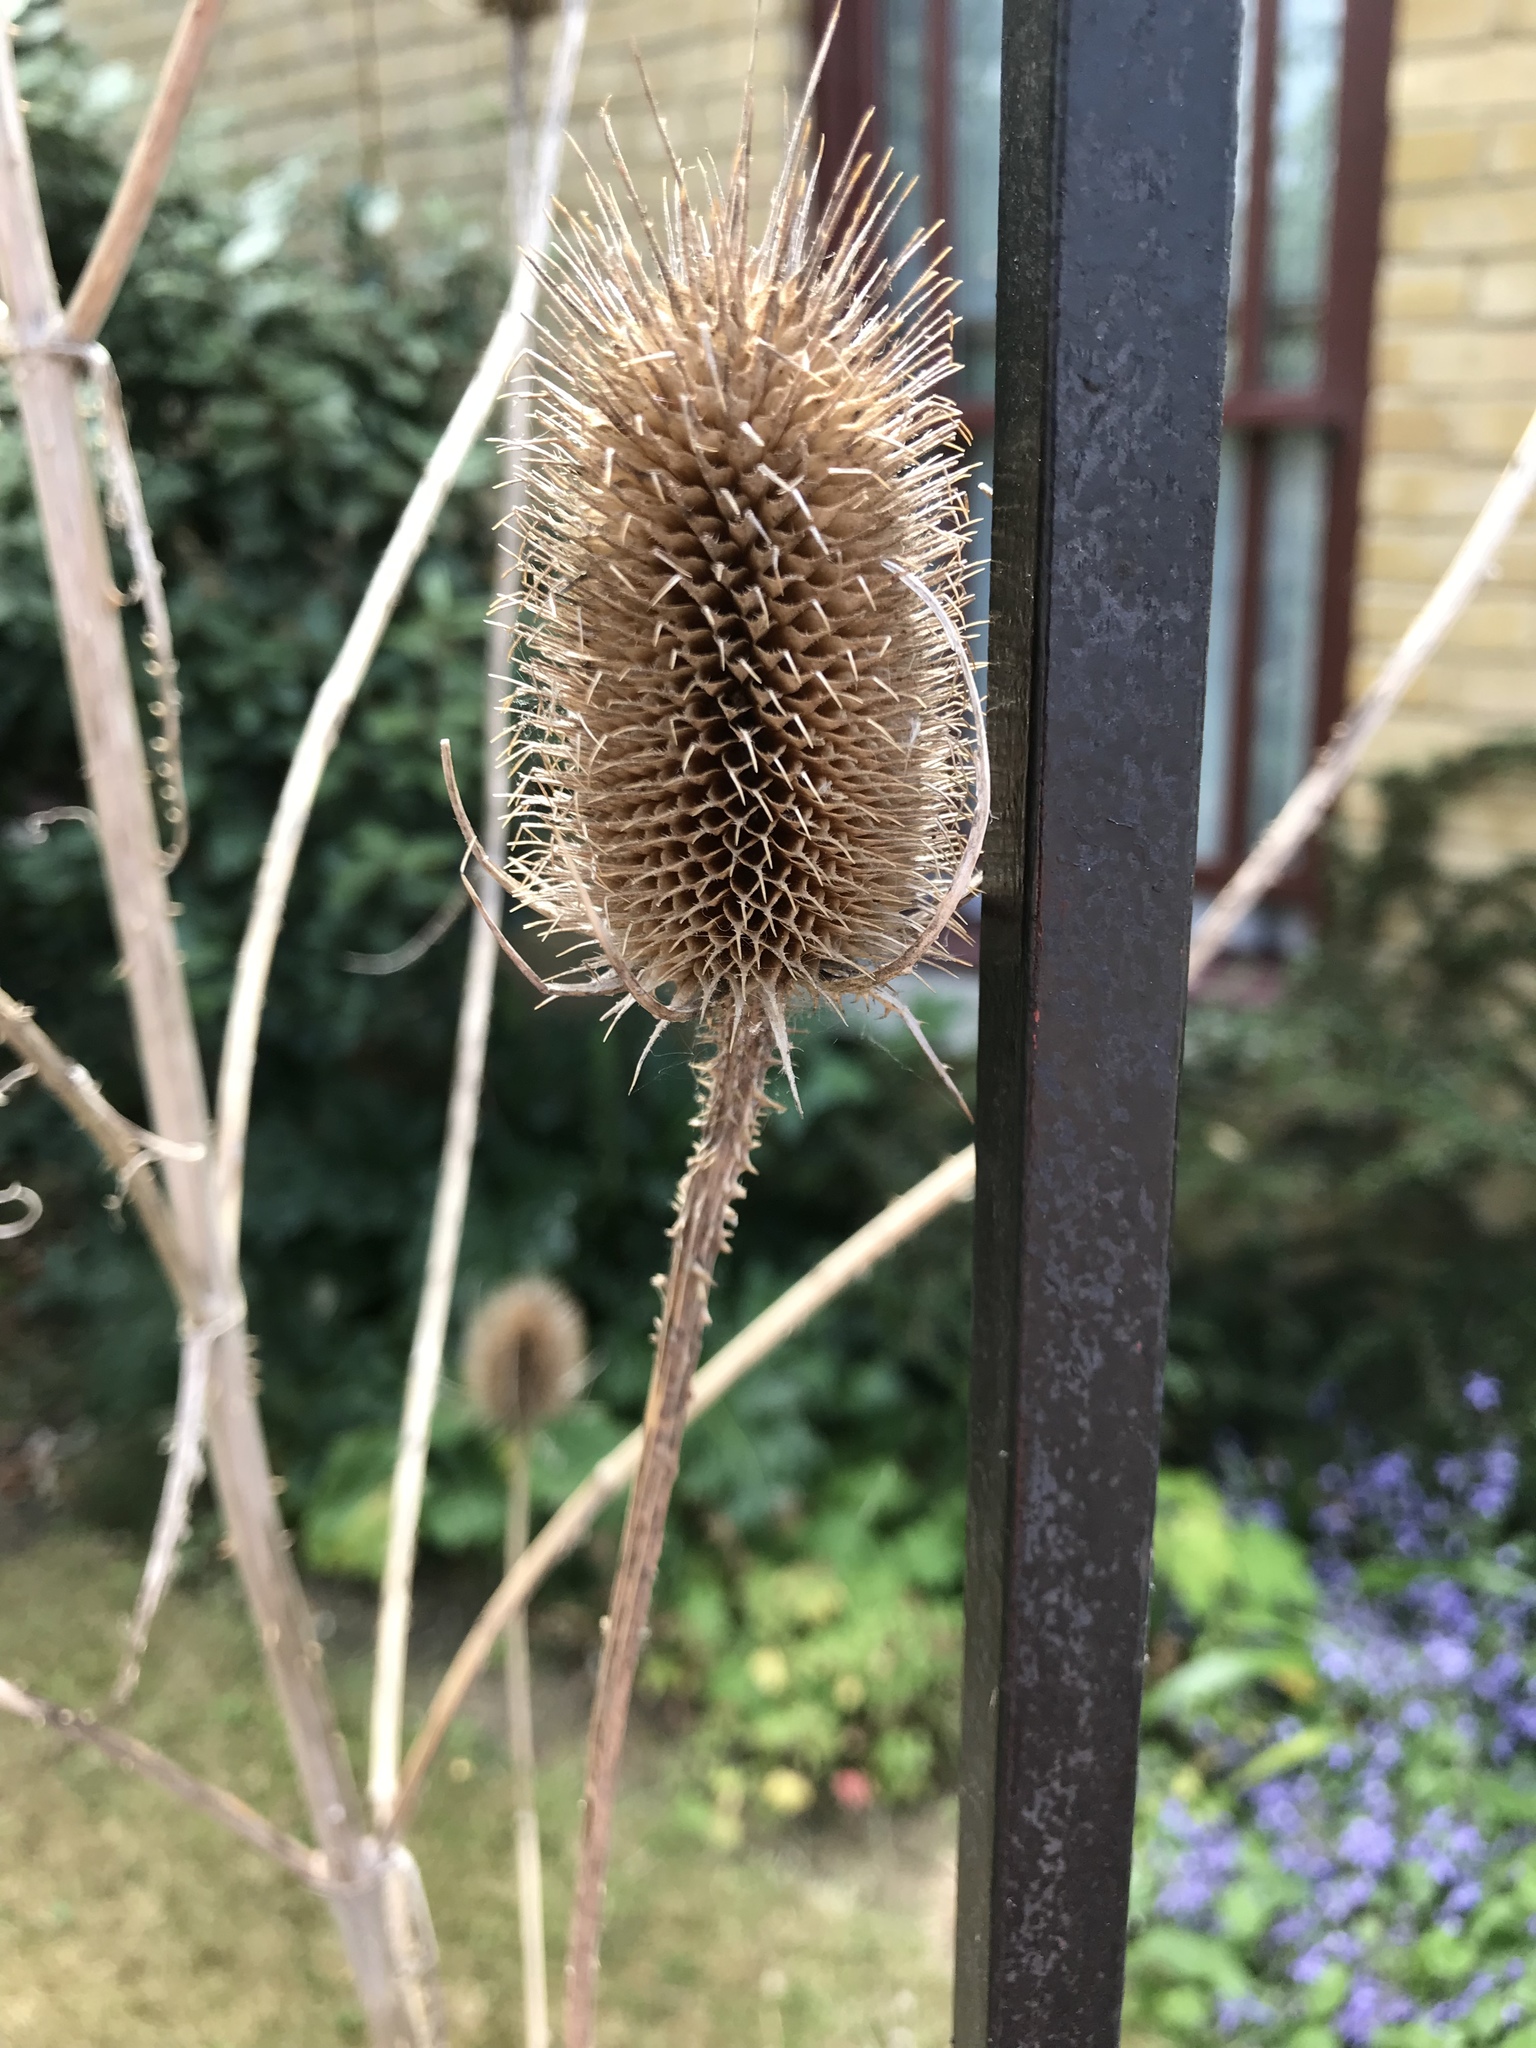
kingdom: Plantae
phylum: Tracheophyta
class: Magnoliopsida
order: Dipsacales
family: Caprifoliaceae
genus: Dipsacus
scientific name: Dipsacus fullonum
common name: Teasel
